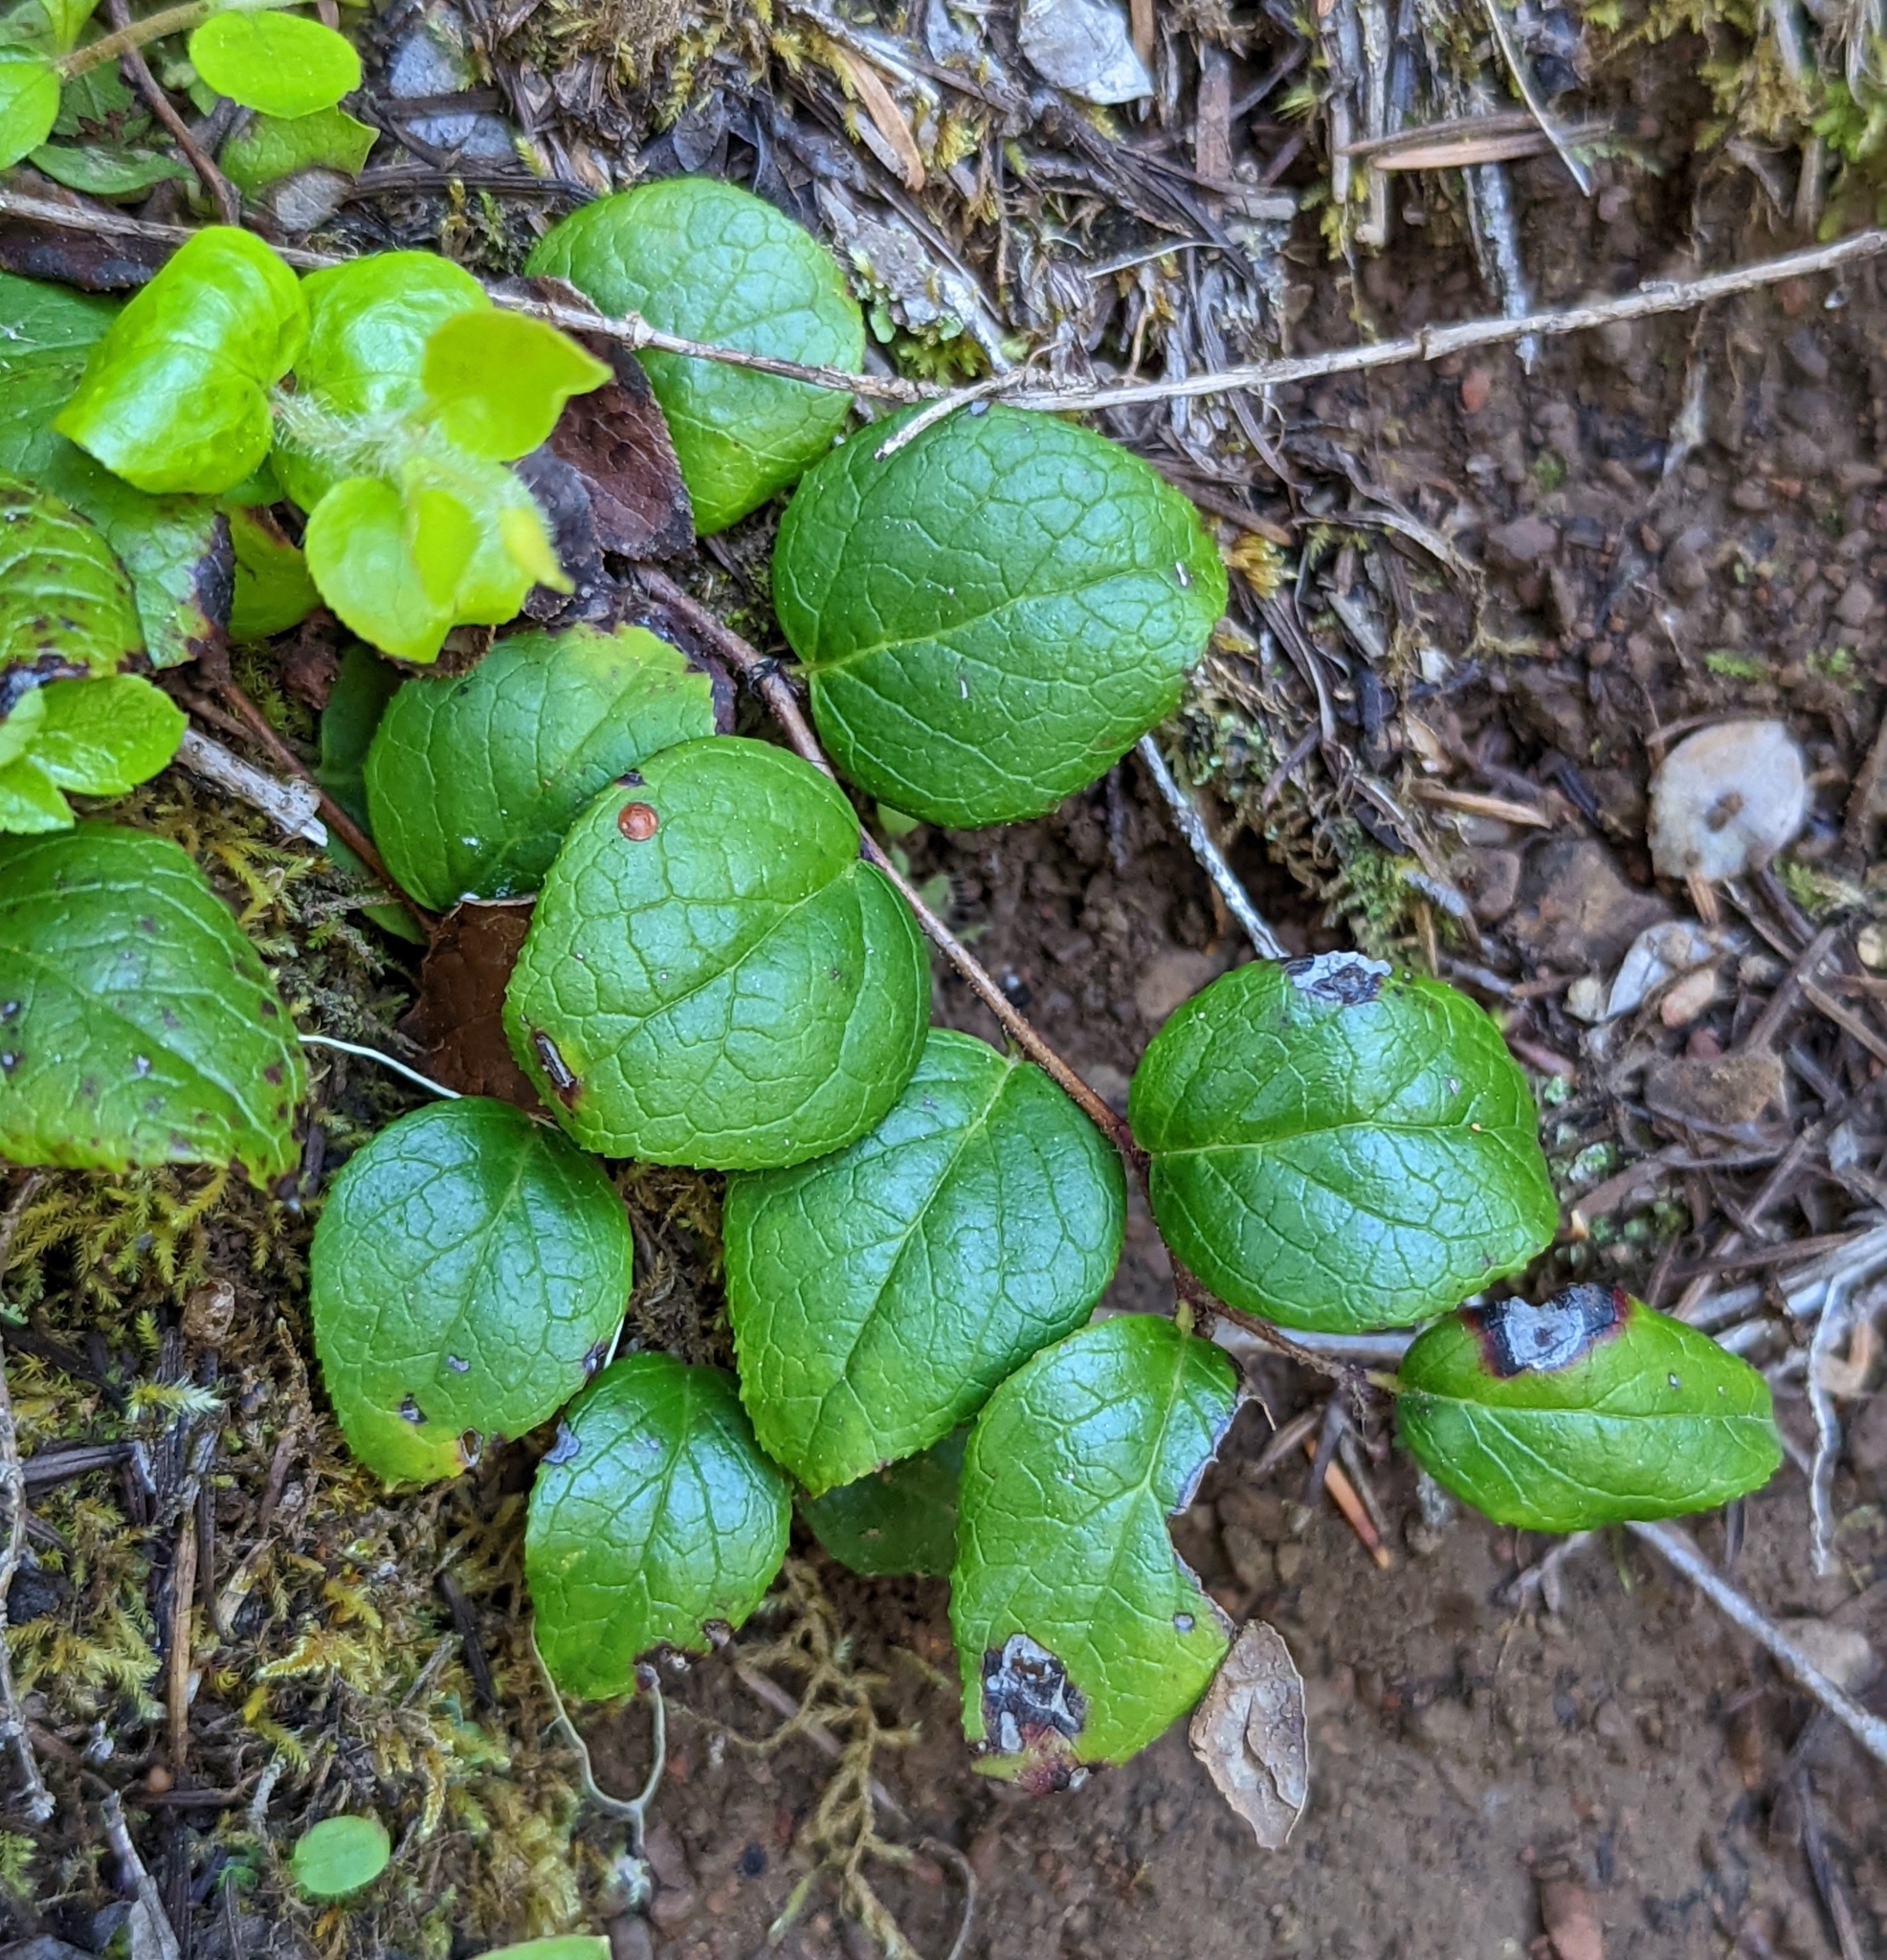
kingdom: Plantae
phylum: Tracheophyta
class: Magnoliopsida
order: Ericales
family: Ericaceae
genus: Gaultheria
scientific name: Gaultheria ovatifolia
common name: Oregon wintergreen
